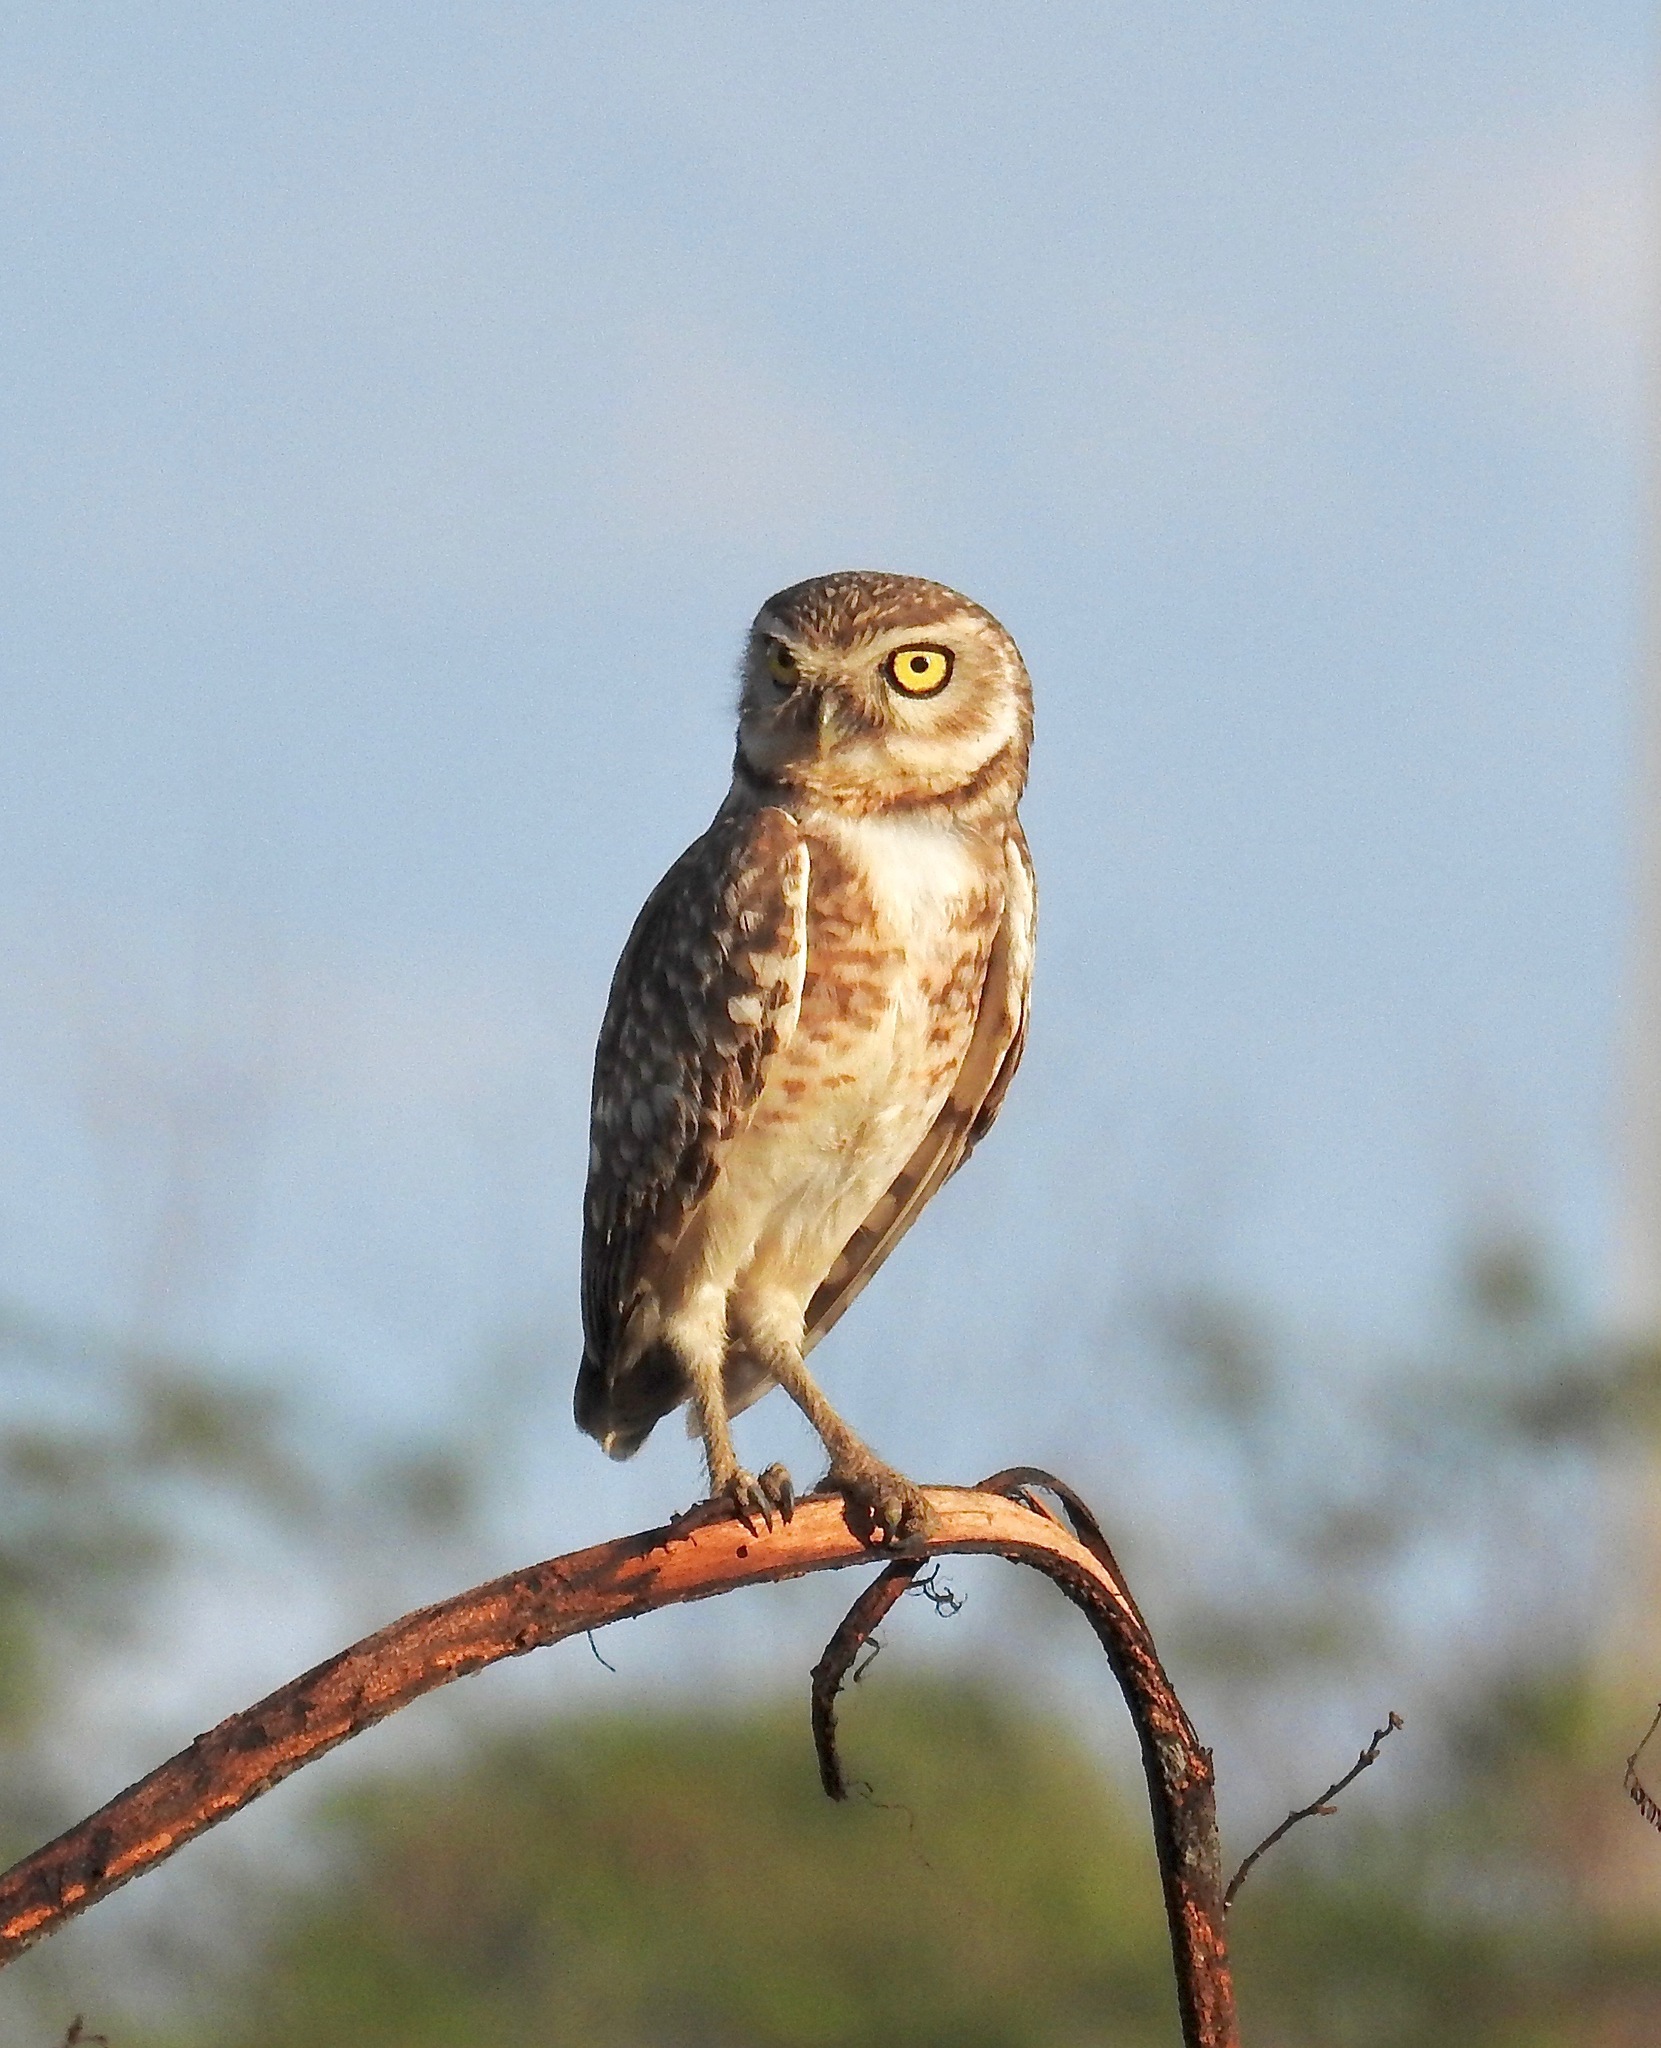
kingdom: Animalia
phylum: Chordata
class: Aves
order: Strigiformes
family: Strigidae
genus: Athene
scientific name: Athene cunicularia
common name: Burrowing owl
